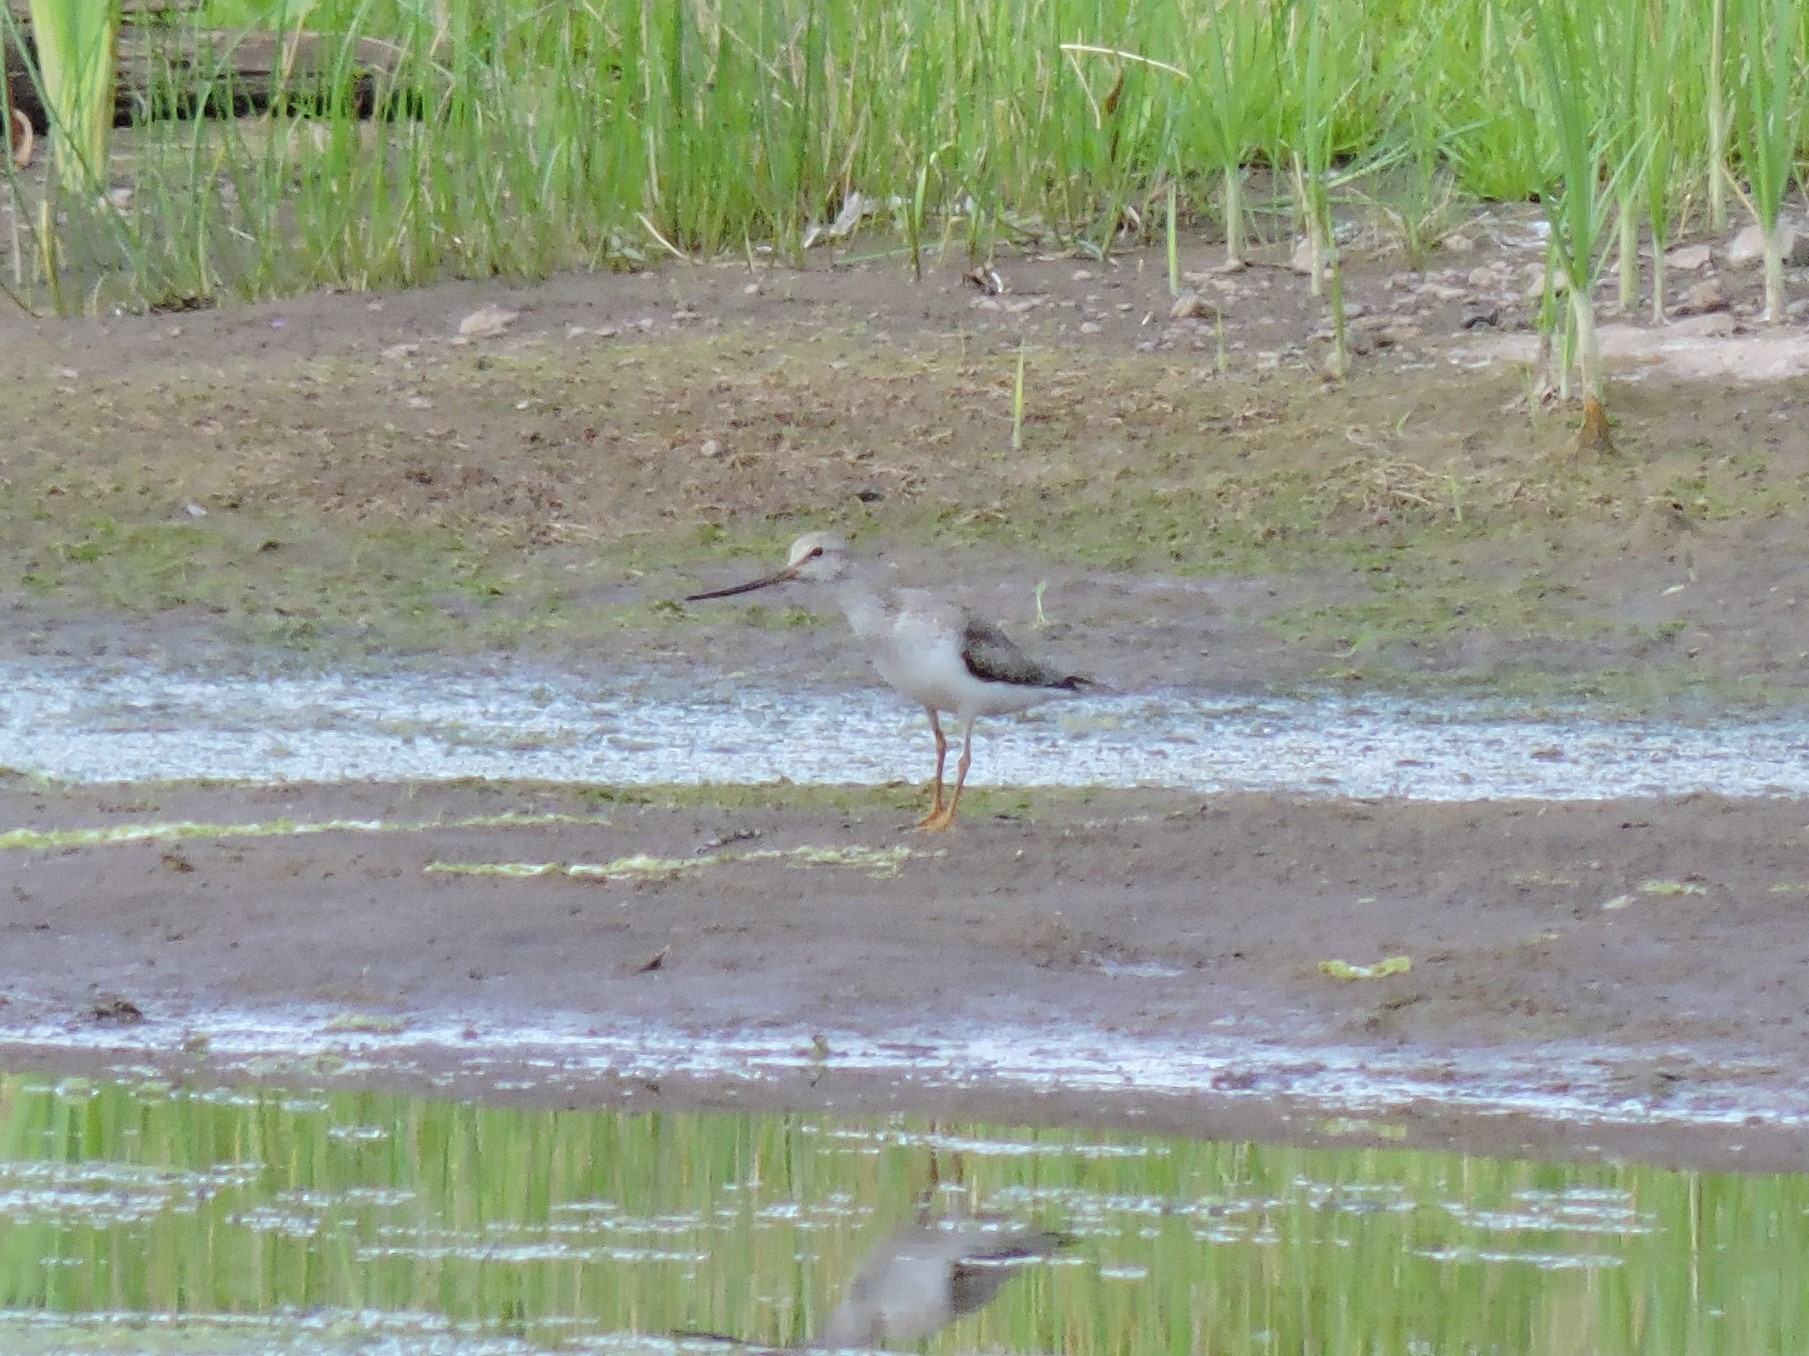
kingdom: Animalia
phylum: Chordata
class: Aves
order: Charadriiformes
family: Scolopacidae
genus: Xenus
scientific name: Xenus cinereus
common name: Terek sandpiper
